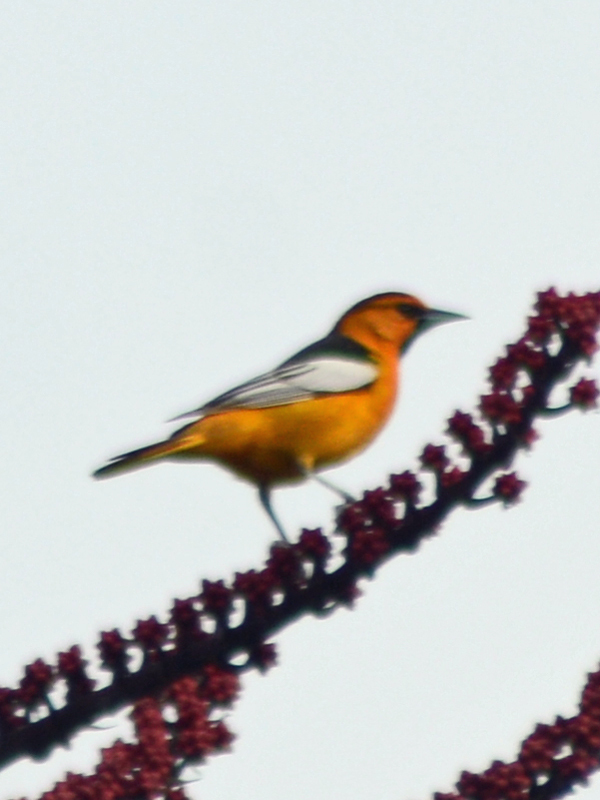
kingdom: Animalia
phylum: Chordata
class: Aves
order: Passeriformes
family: Icteridae
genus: Icterus
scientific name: Icterus bullockii
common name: Bullock's oriole
